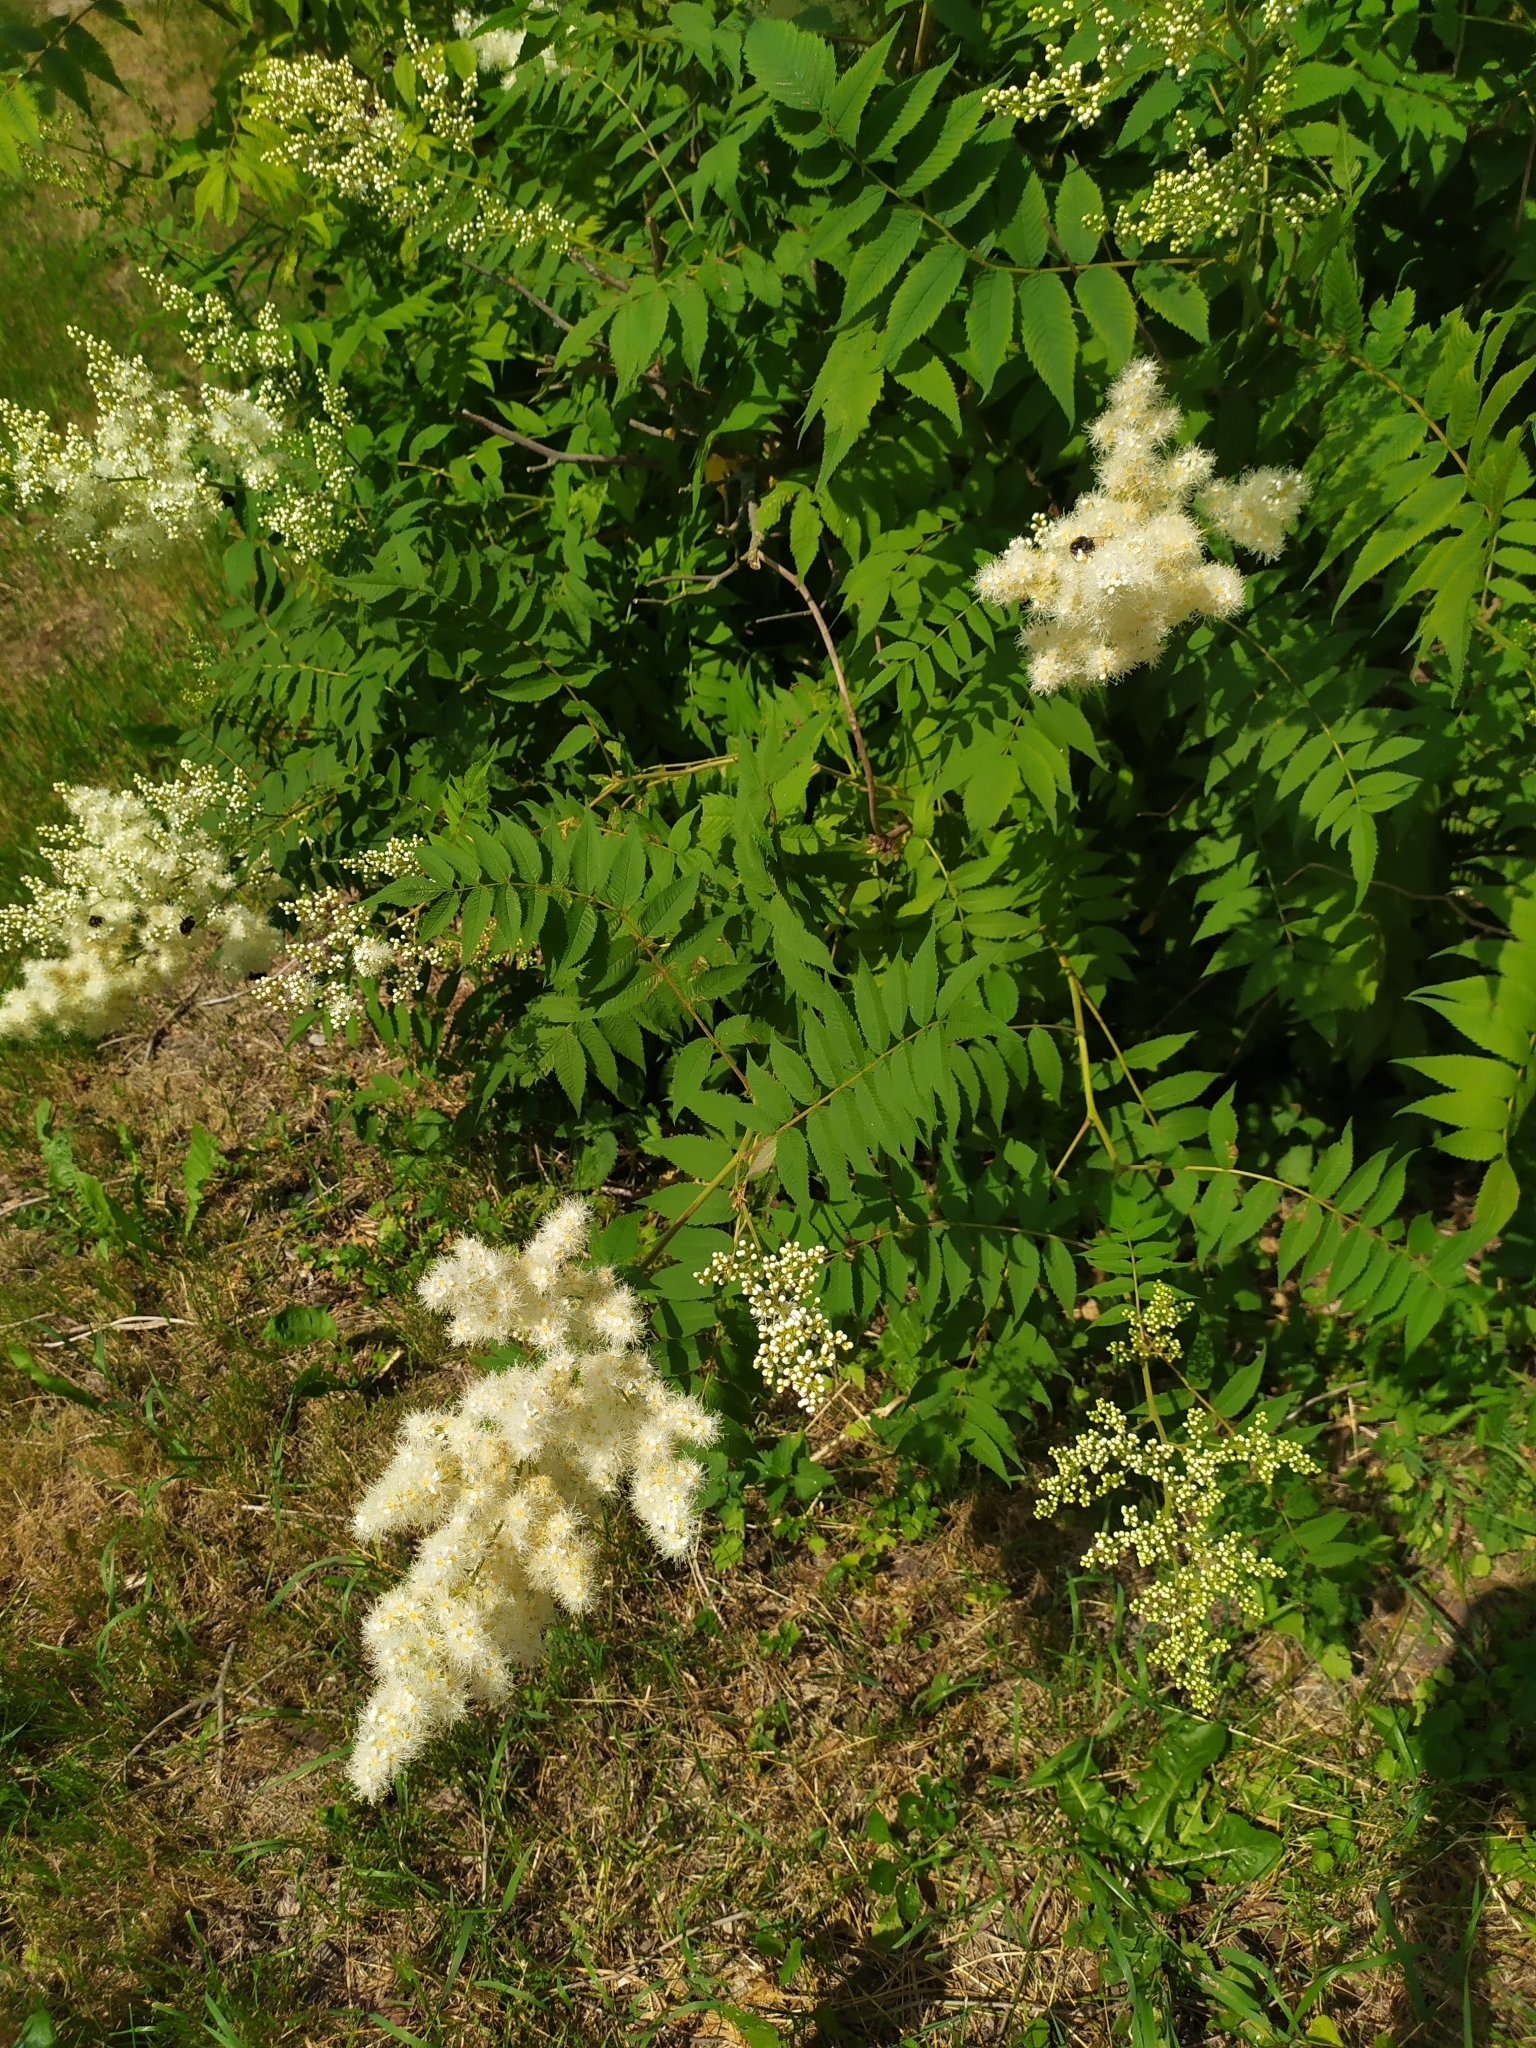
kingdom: Plantae
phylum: Tracheophyta
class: Magnoliopsida
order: Rosales
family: Rosaceae
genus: Sorbaria
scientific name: Sorbaria sorbifolia
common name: False spiraea
